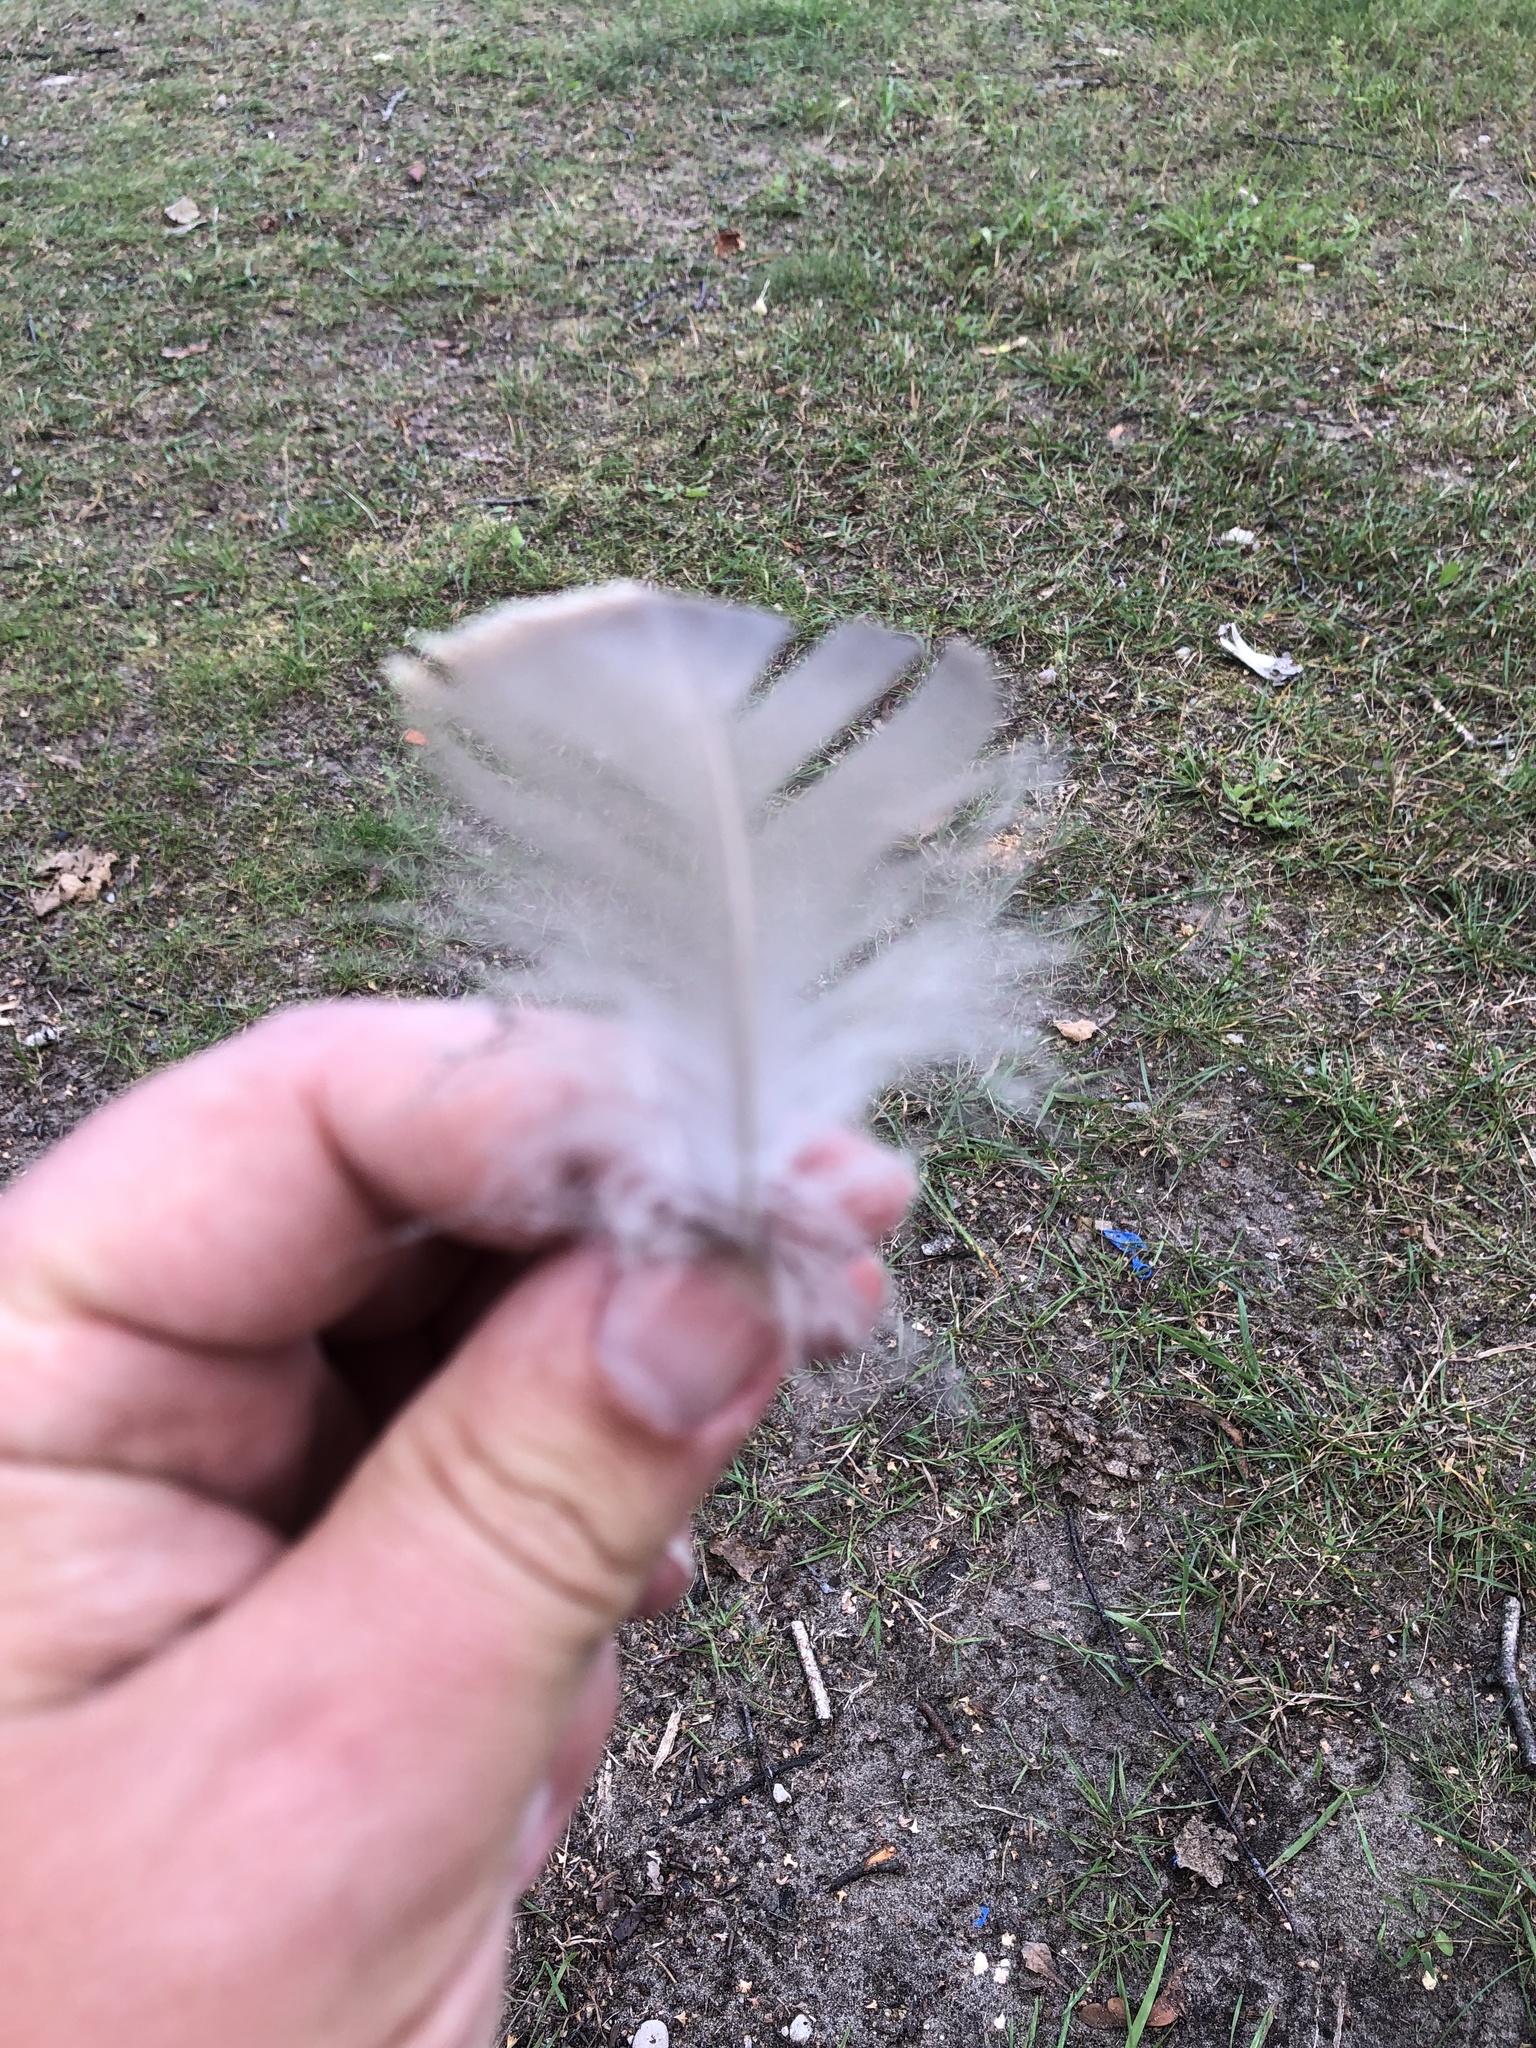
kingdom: Animalia
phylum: Chordata
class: Aves
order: Anseriformes
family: Anatidae
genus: Branta
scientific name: Branta canadensis
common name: Canada goose
